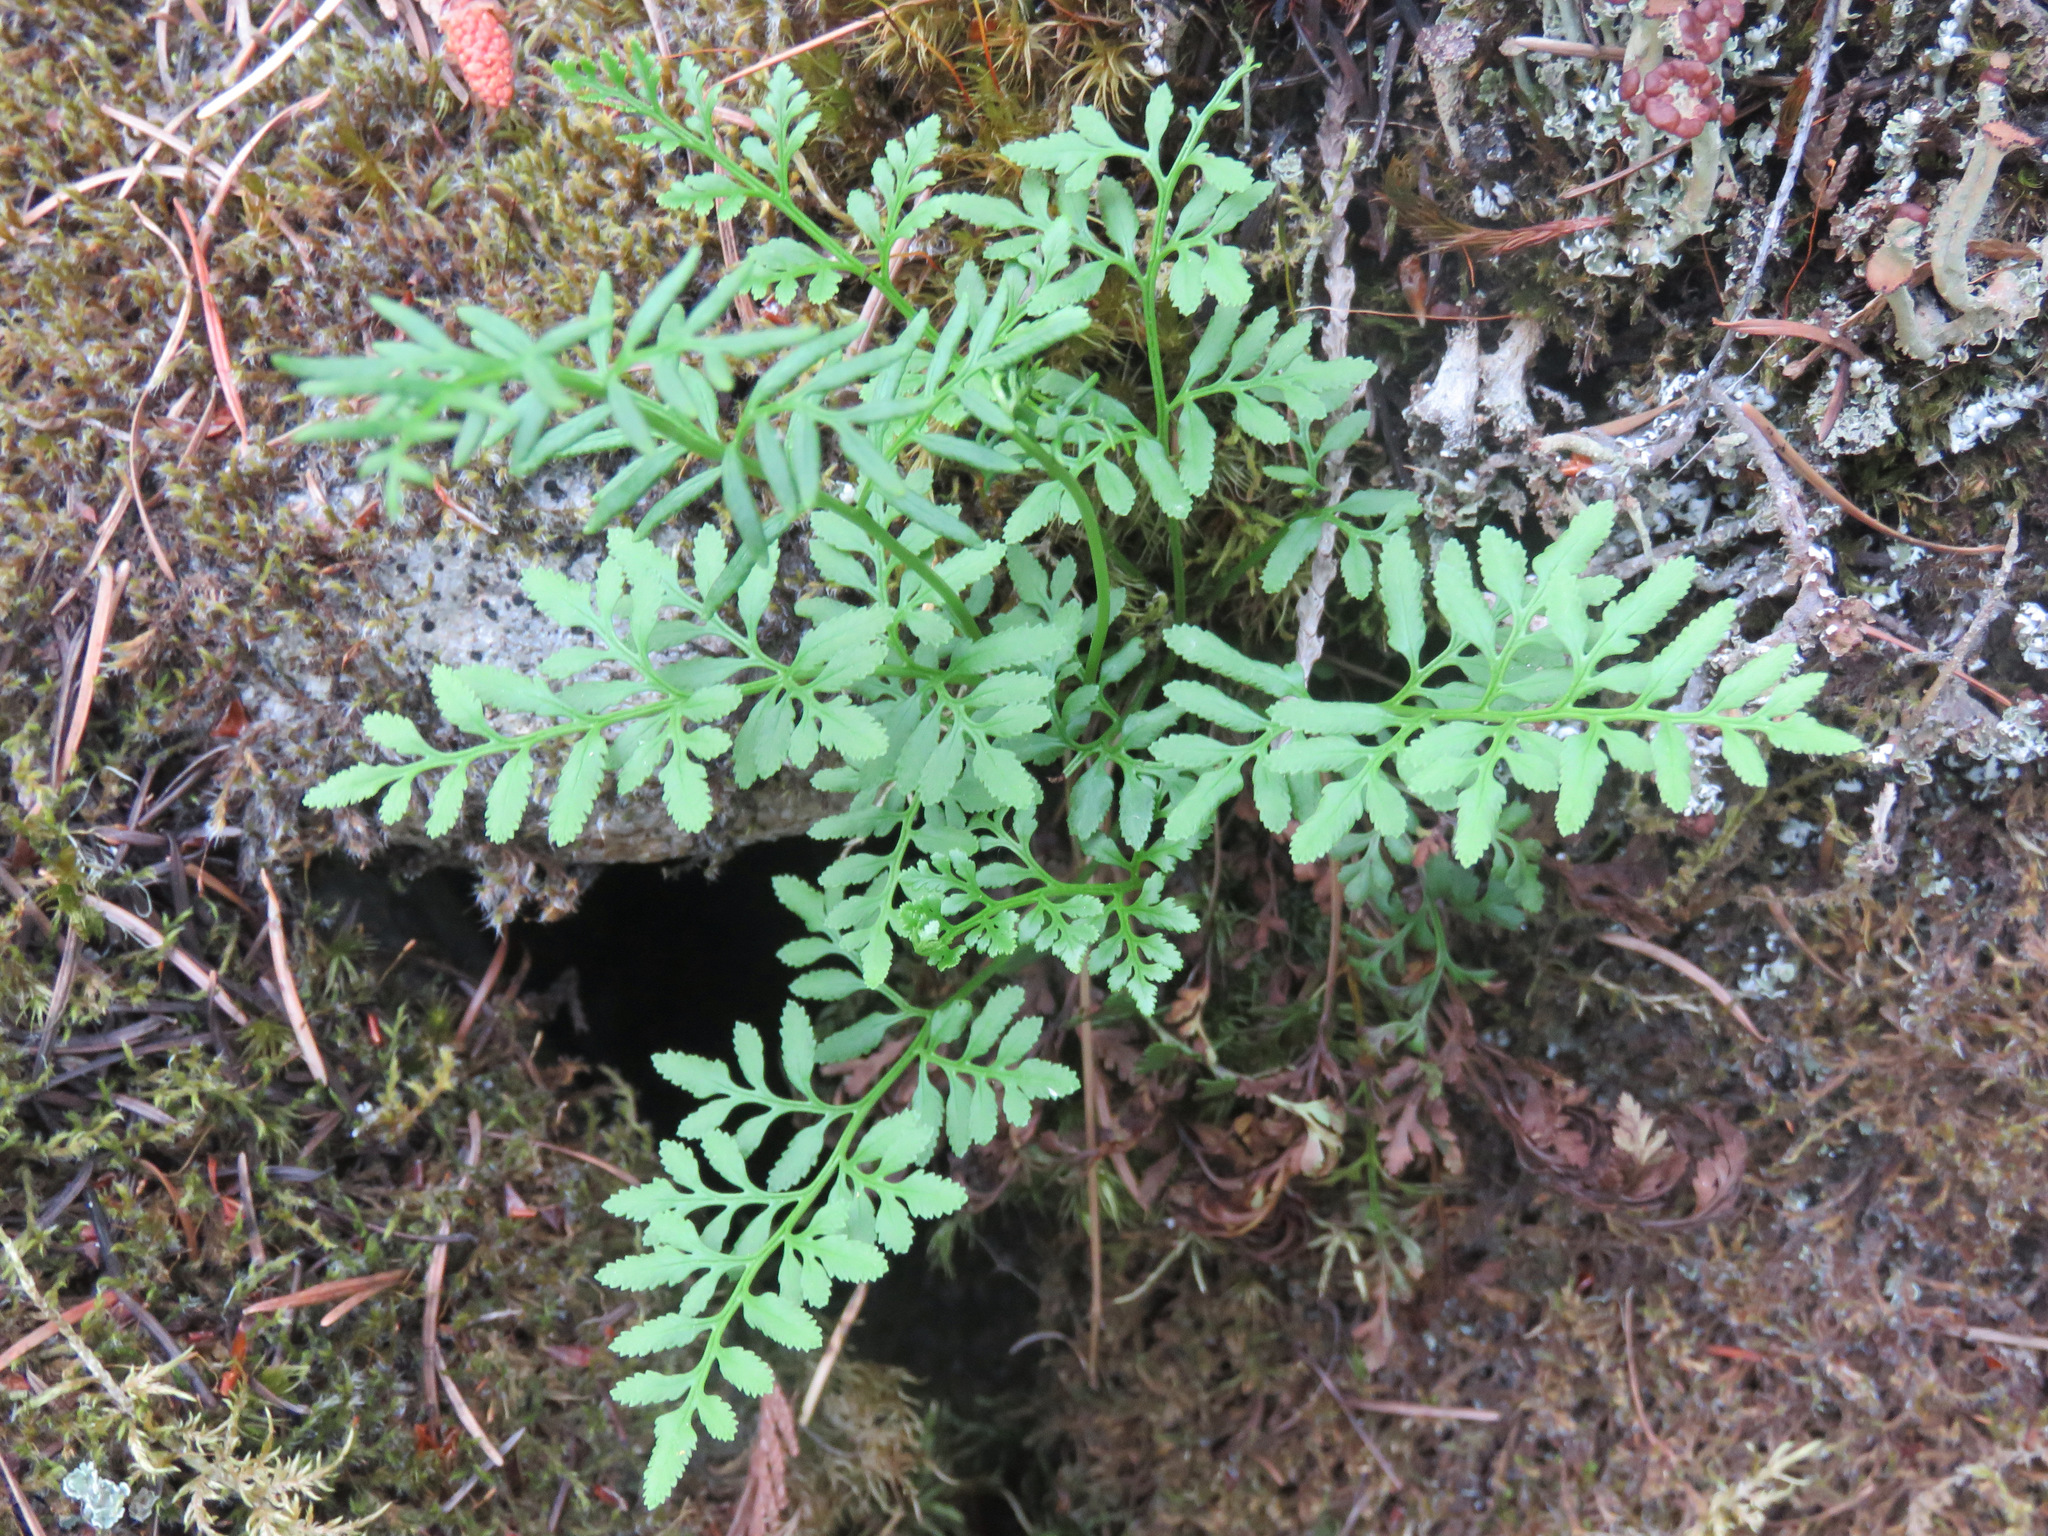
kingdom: Plantae
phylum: Tracheophyta
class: Polypodiopsida
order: Polypodiales
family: Pteridaceae
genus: Cryptogramma
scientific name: Cryptogramma acrostichoides
